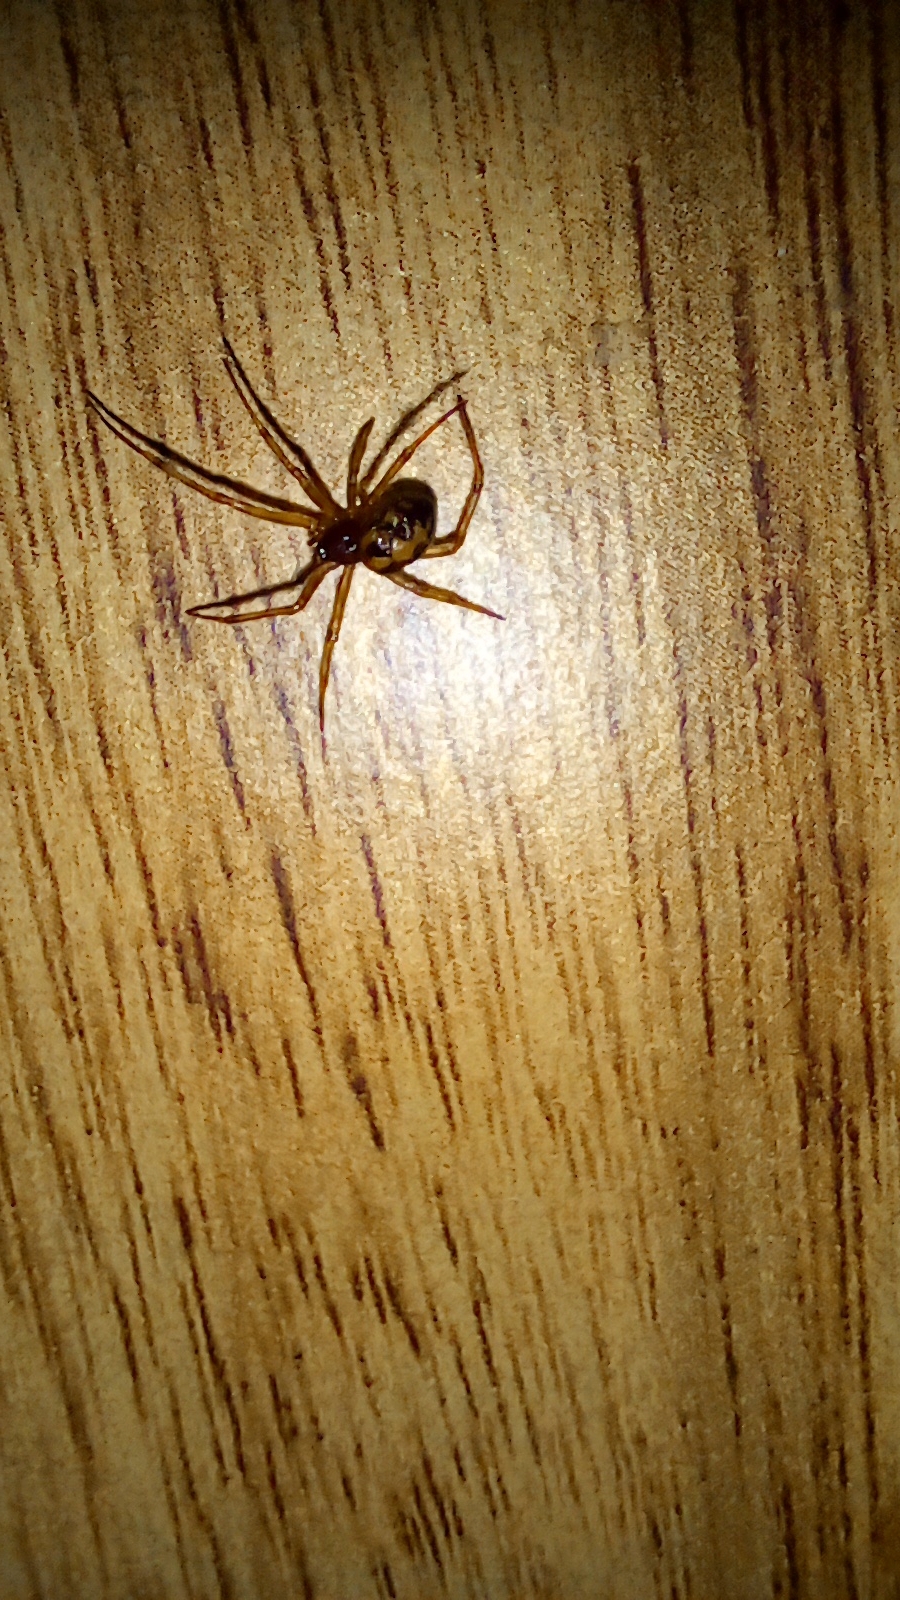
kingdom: Animalia
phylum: Arthropoda
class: Arachnida
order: Araneae
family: Theridiidae
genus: Steatoda
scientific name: Steatoda triangulosa
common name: Triangulate bud spider
